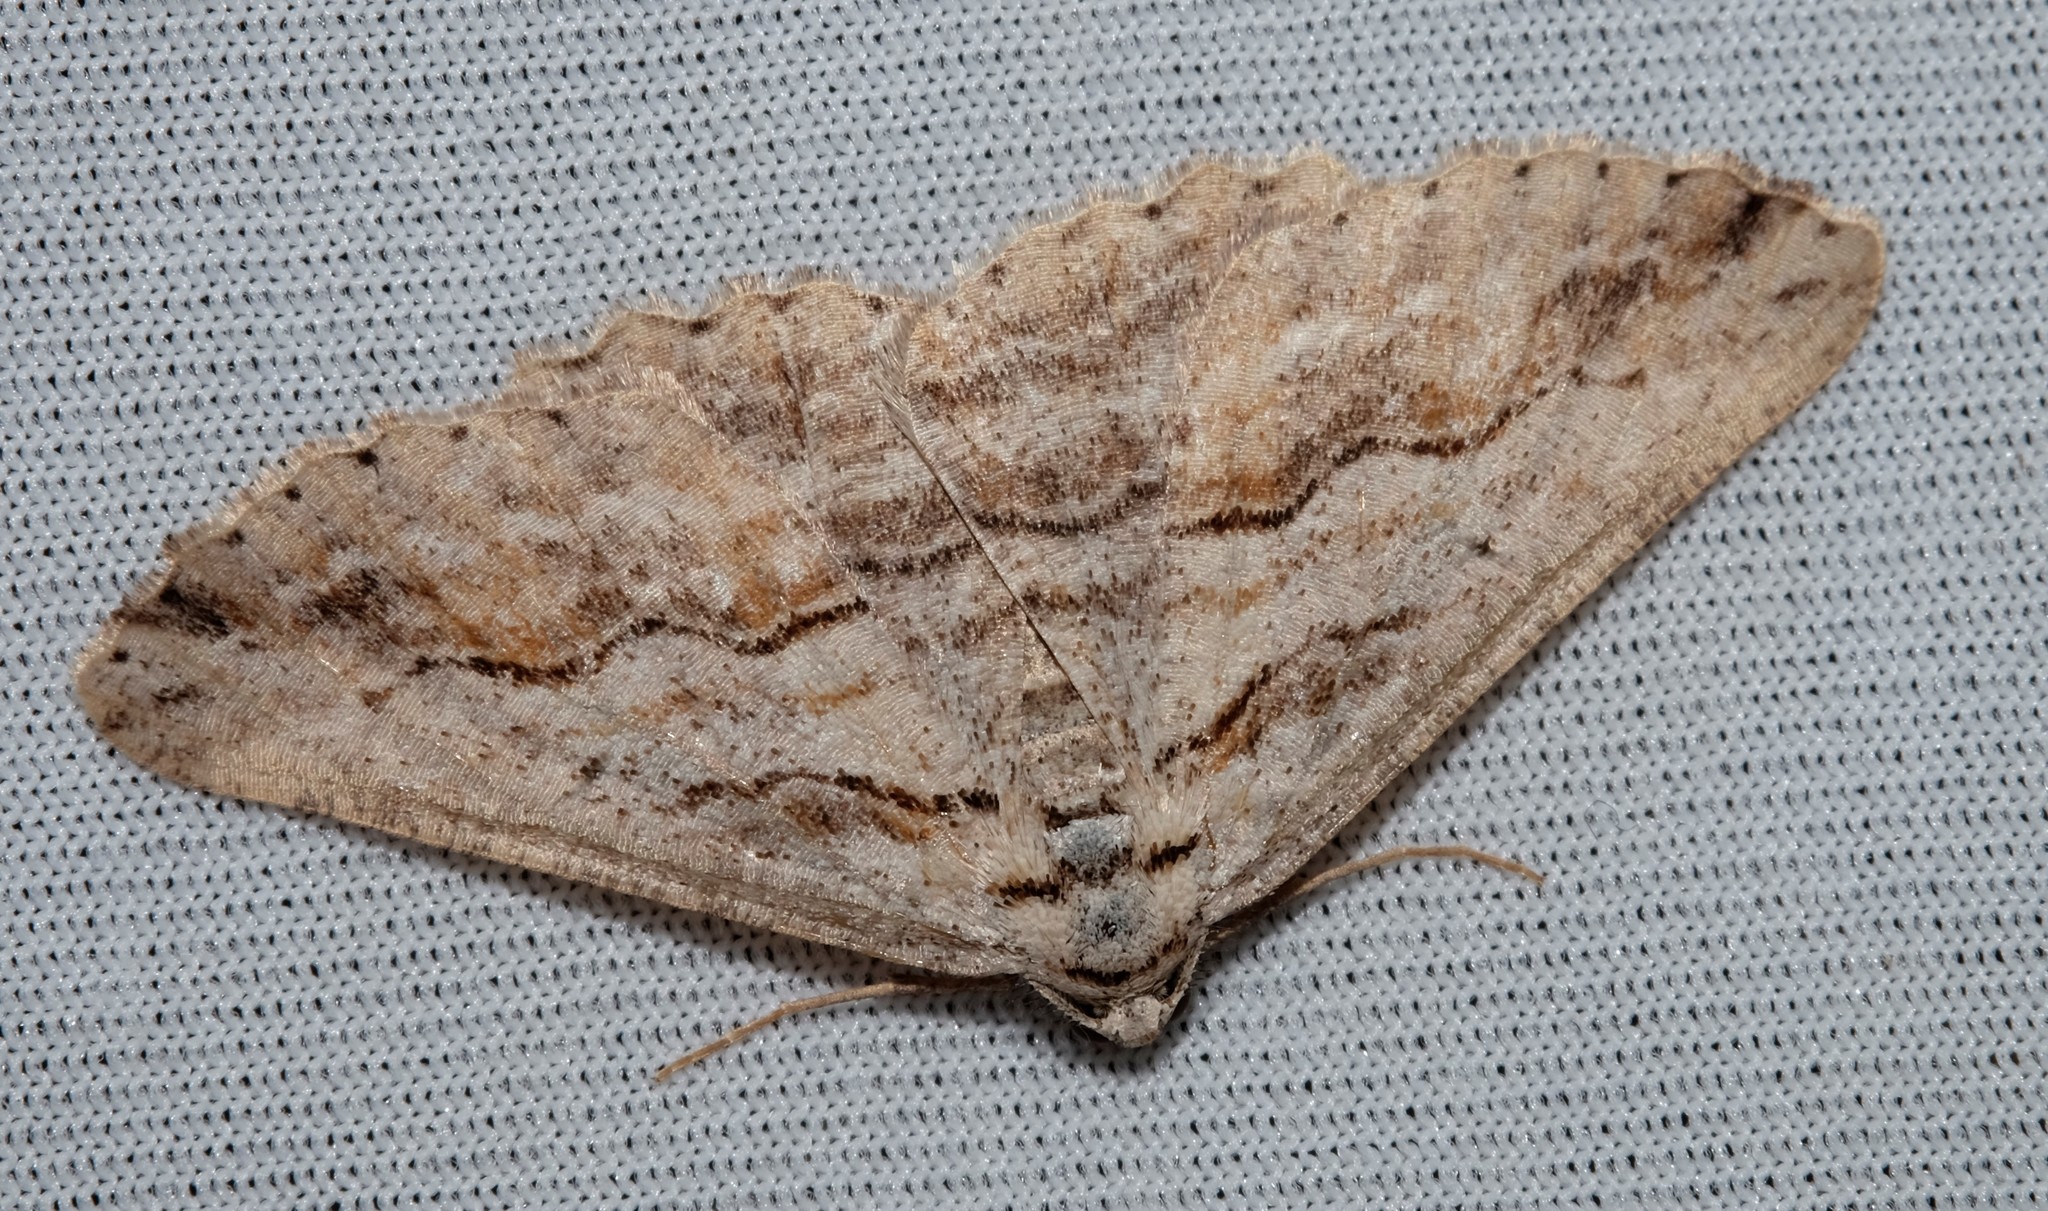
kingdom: Animalia
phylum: Arthropoda
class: Insecta
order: Lepidoptera
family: Geometridae
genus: Syneora
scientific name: Syneora mundifera
